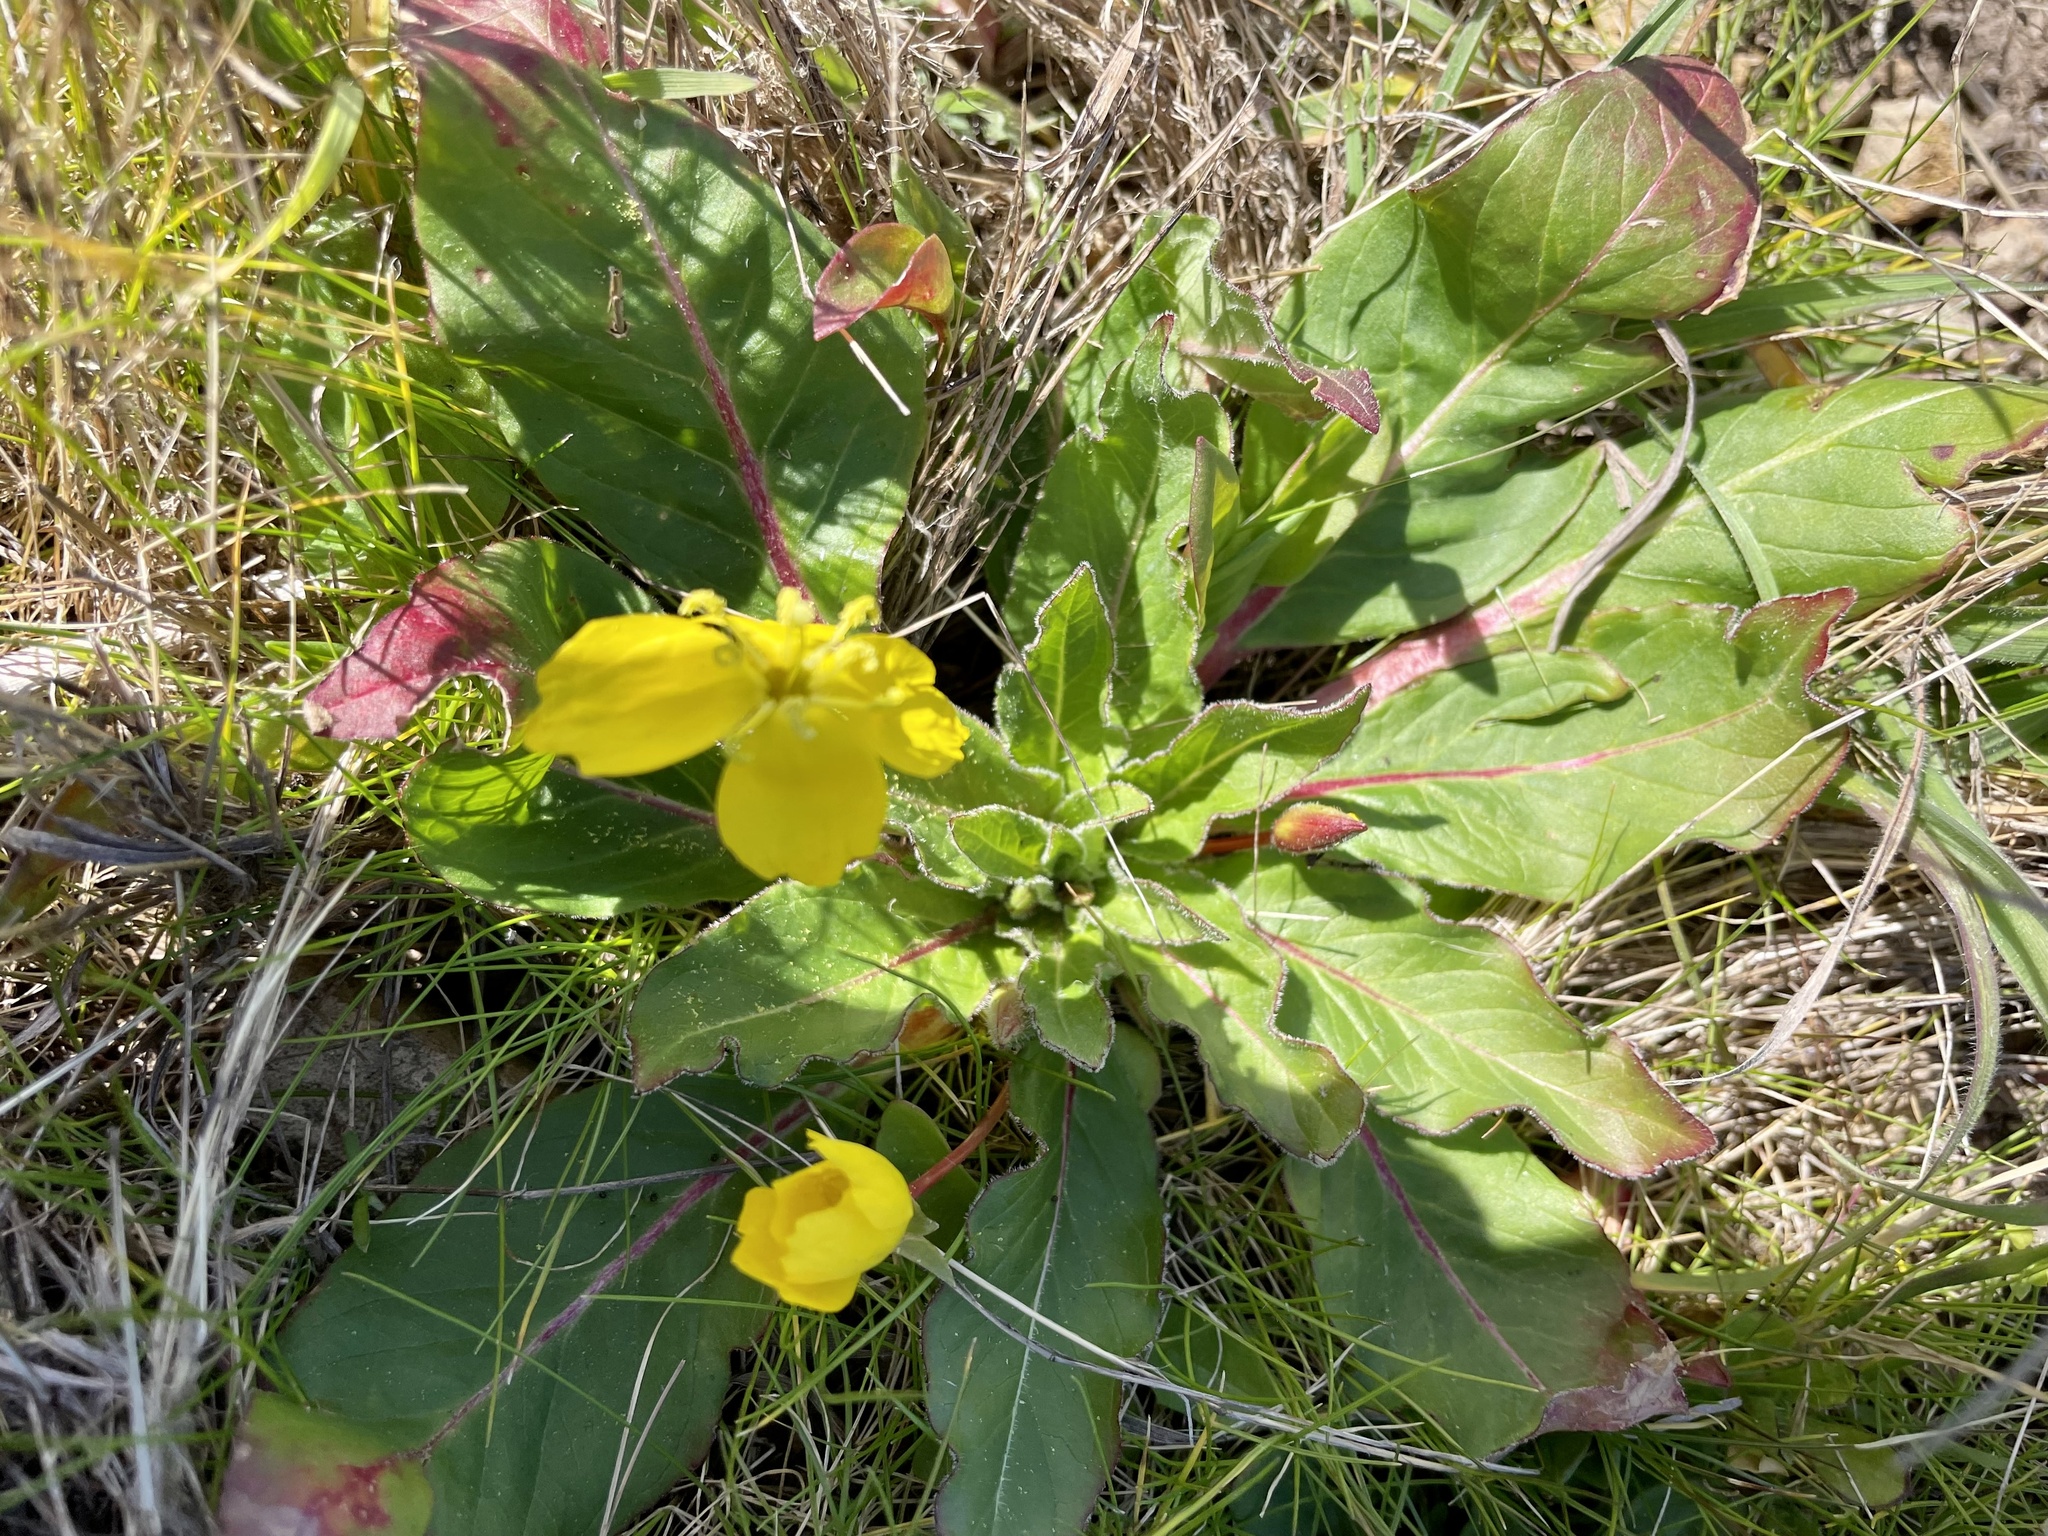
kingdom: Plantae
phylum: Tracheophyta
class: Magnoliopsida
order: Myrtales
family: Onagraceae
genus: Taraxia
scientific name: Taraxia ovata
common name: Goldeneggs
